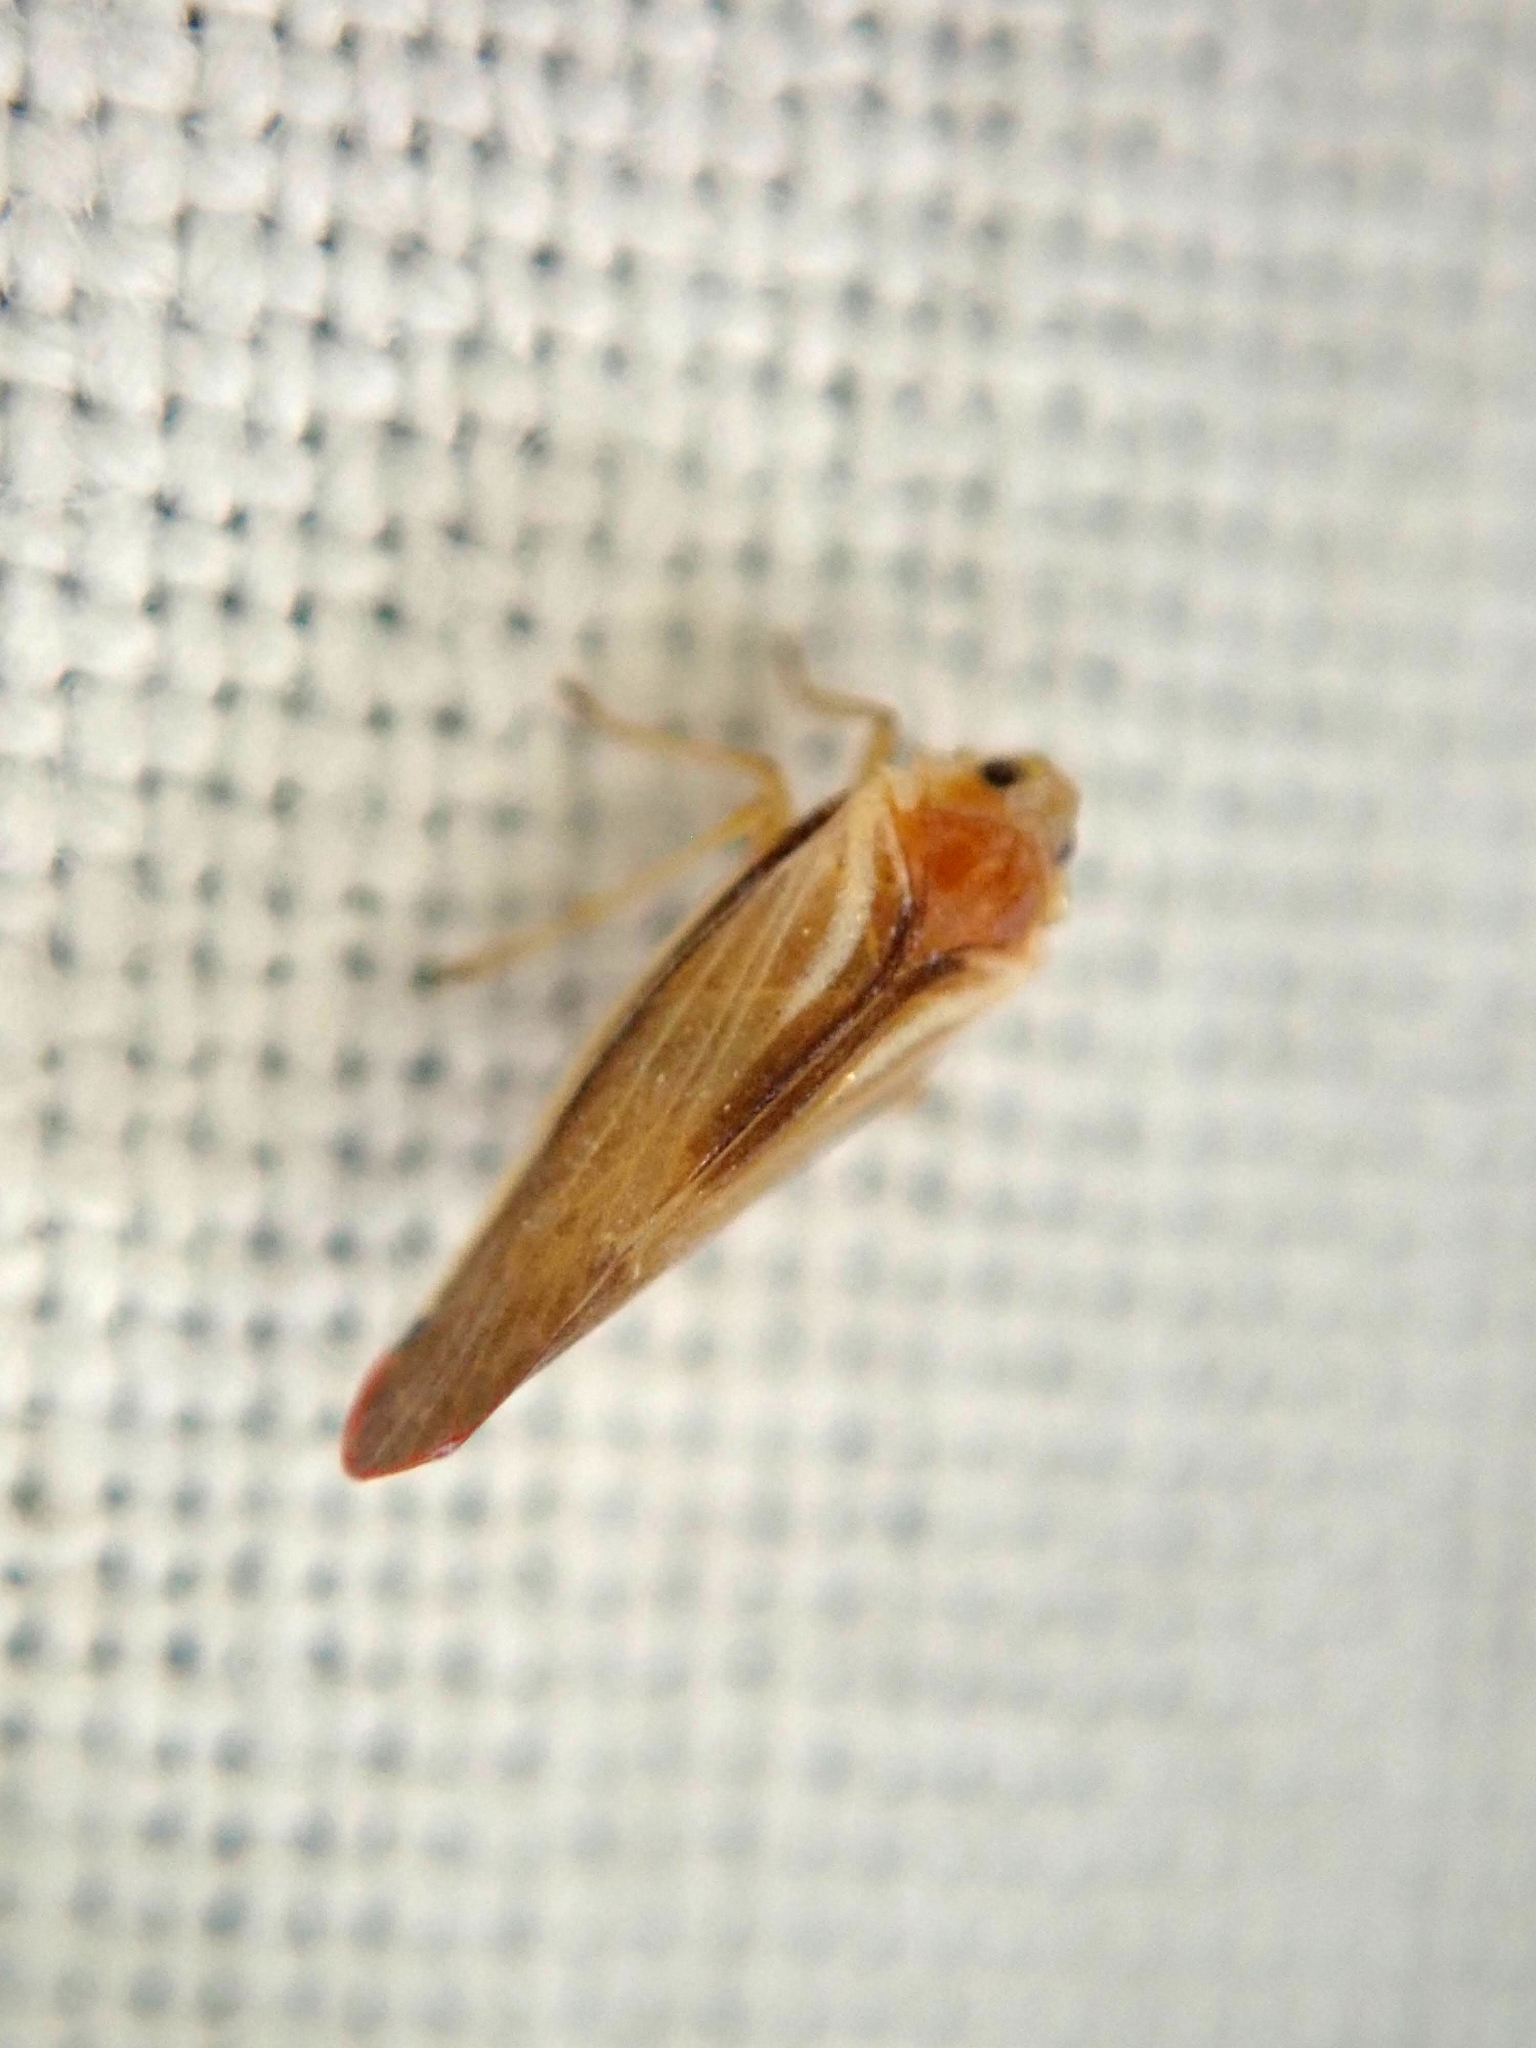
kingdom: Animalia
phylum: Arthropoda
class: Insecta
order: Hemiptera
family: Derbidae
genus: Omolicna
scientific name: Omolicna uhleri
